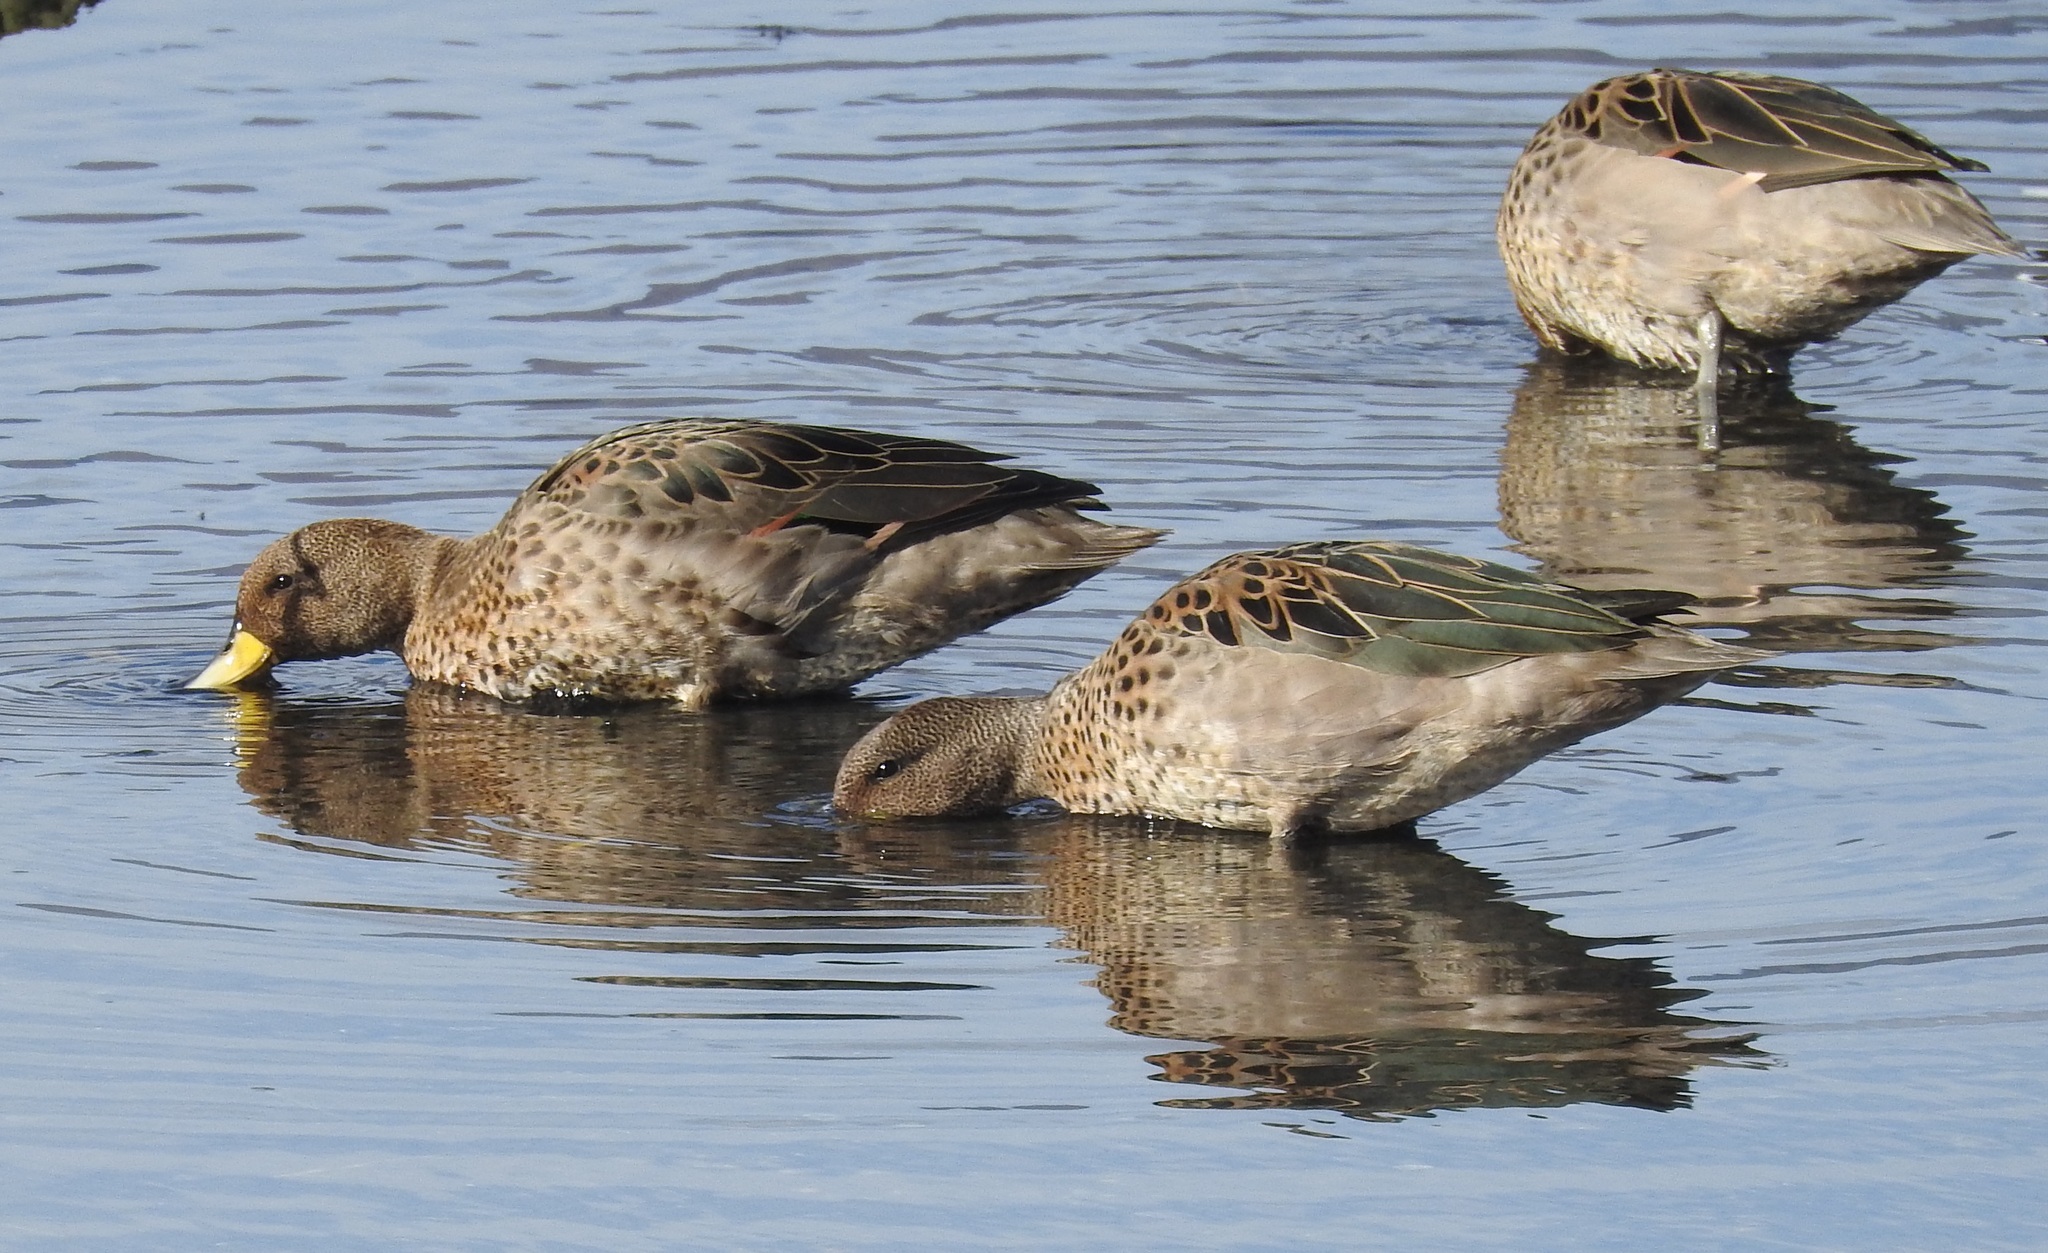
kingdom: Animalia
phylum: Chordata
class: Aves
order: Anseriformes
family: Anatidae
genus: Anas
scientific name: Anas flavirostris
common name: Yellow-billed teal
